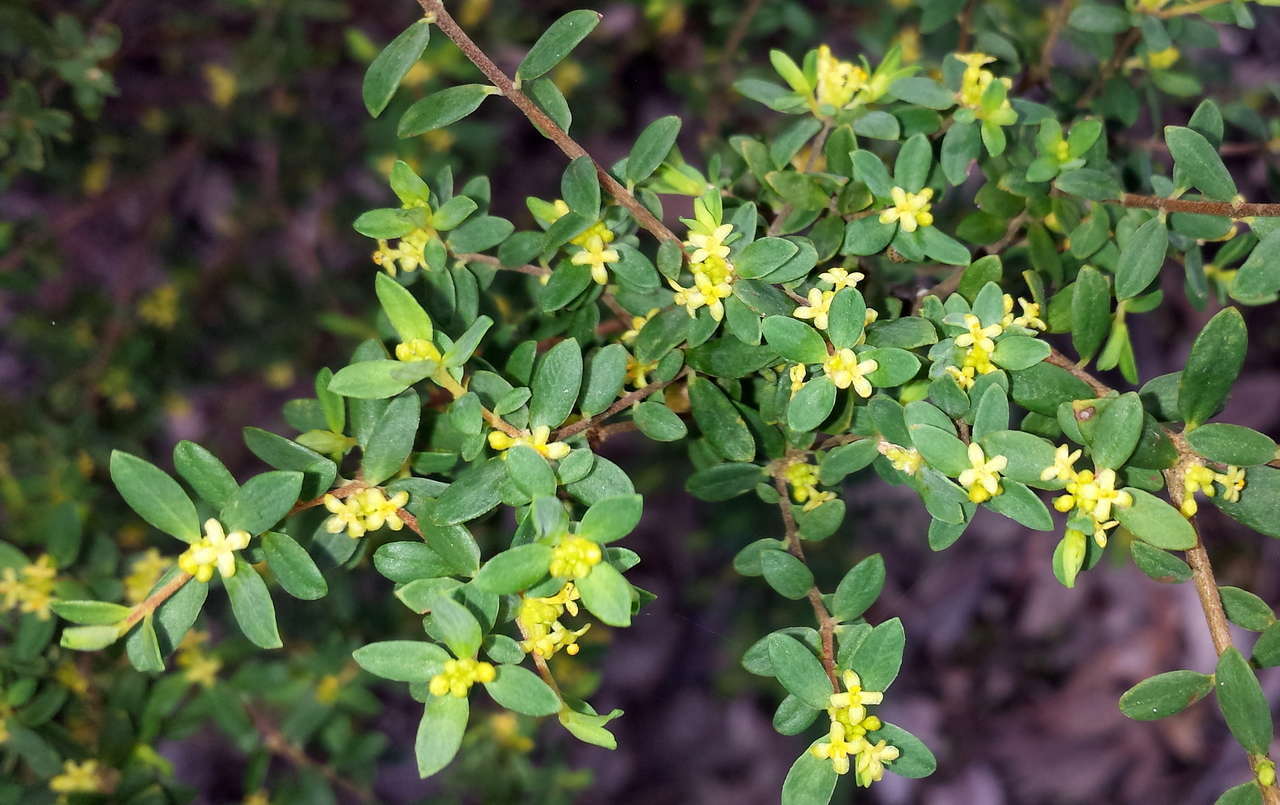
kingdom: Plantae
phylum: Tracheophyta
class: Magnoliopsida
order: Malvales
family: Thymelaeaceae
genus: Pimelea
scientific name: Pimelea hewardiana
